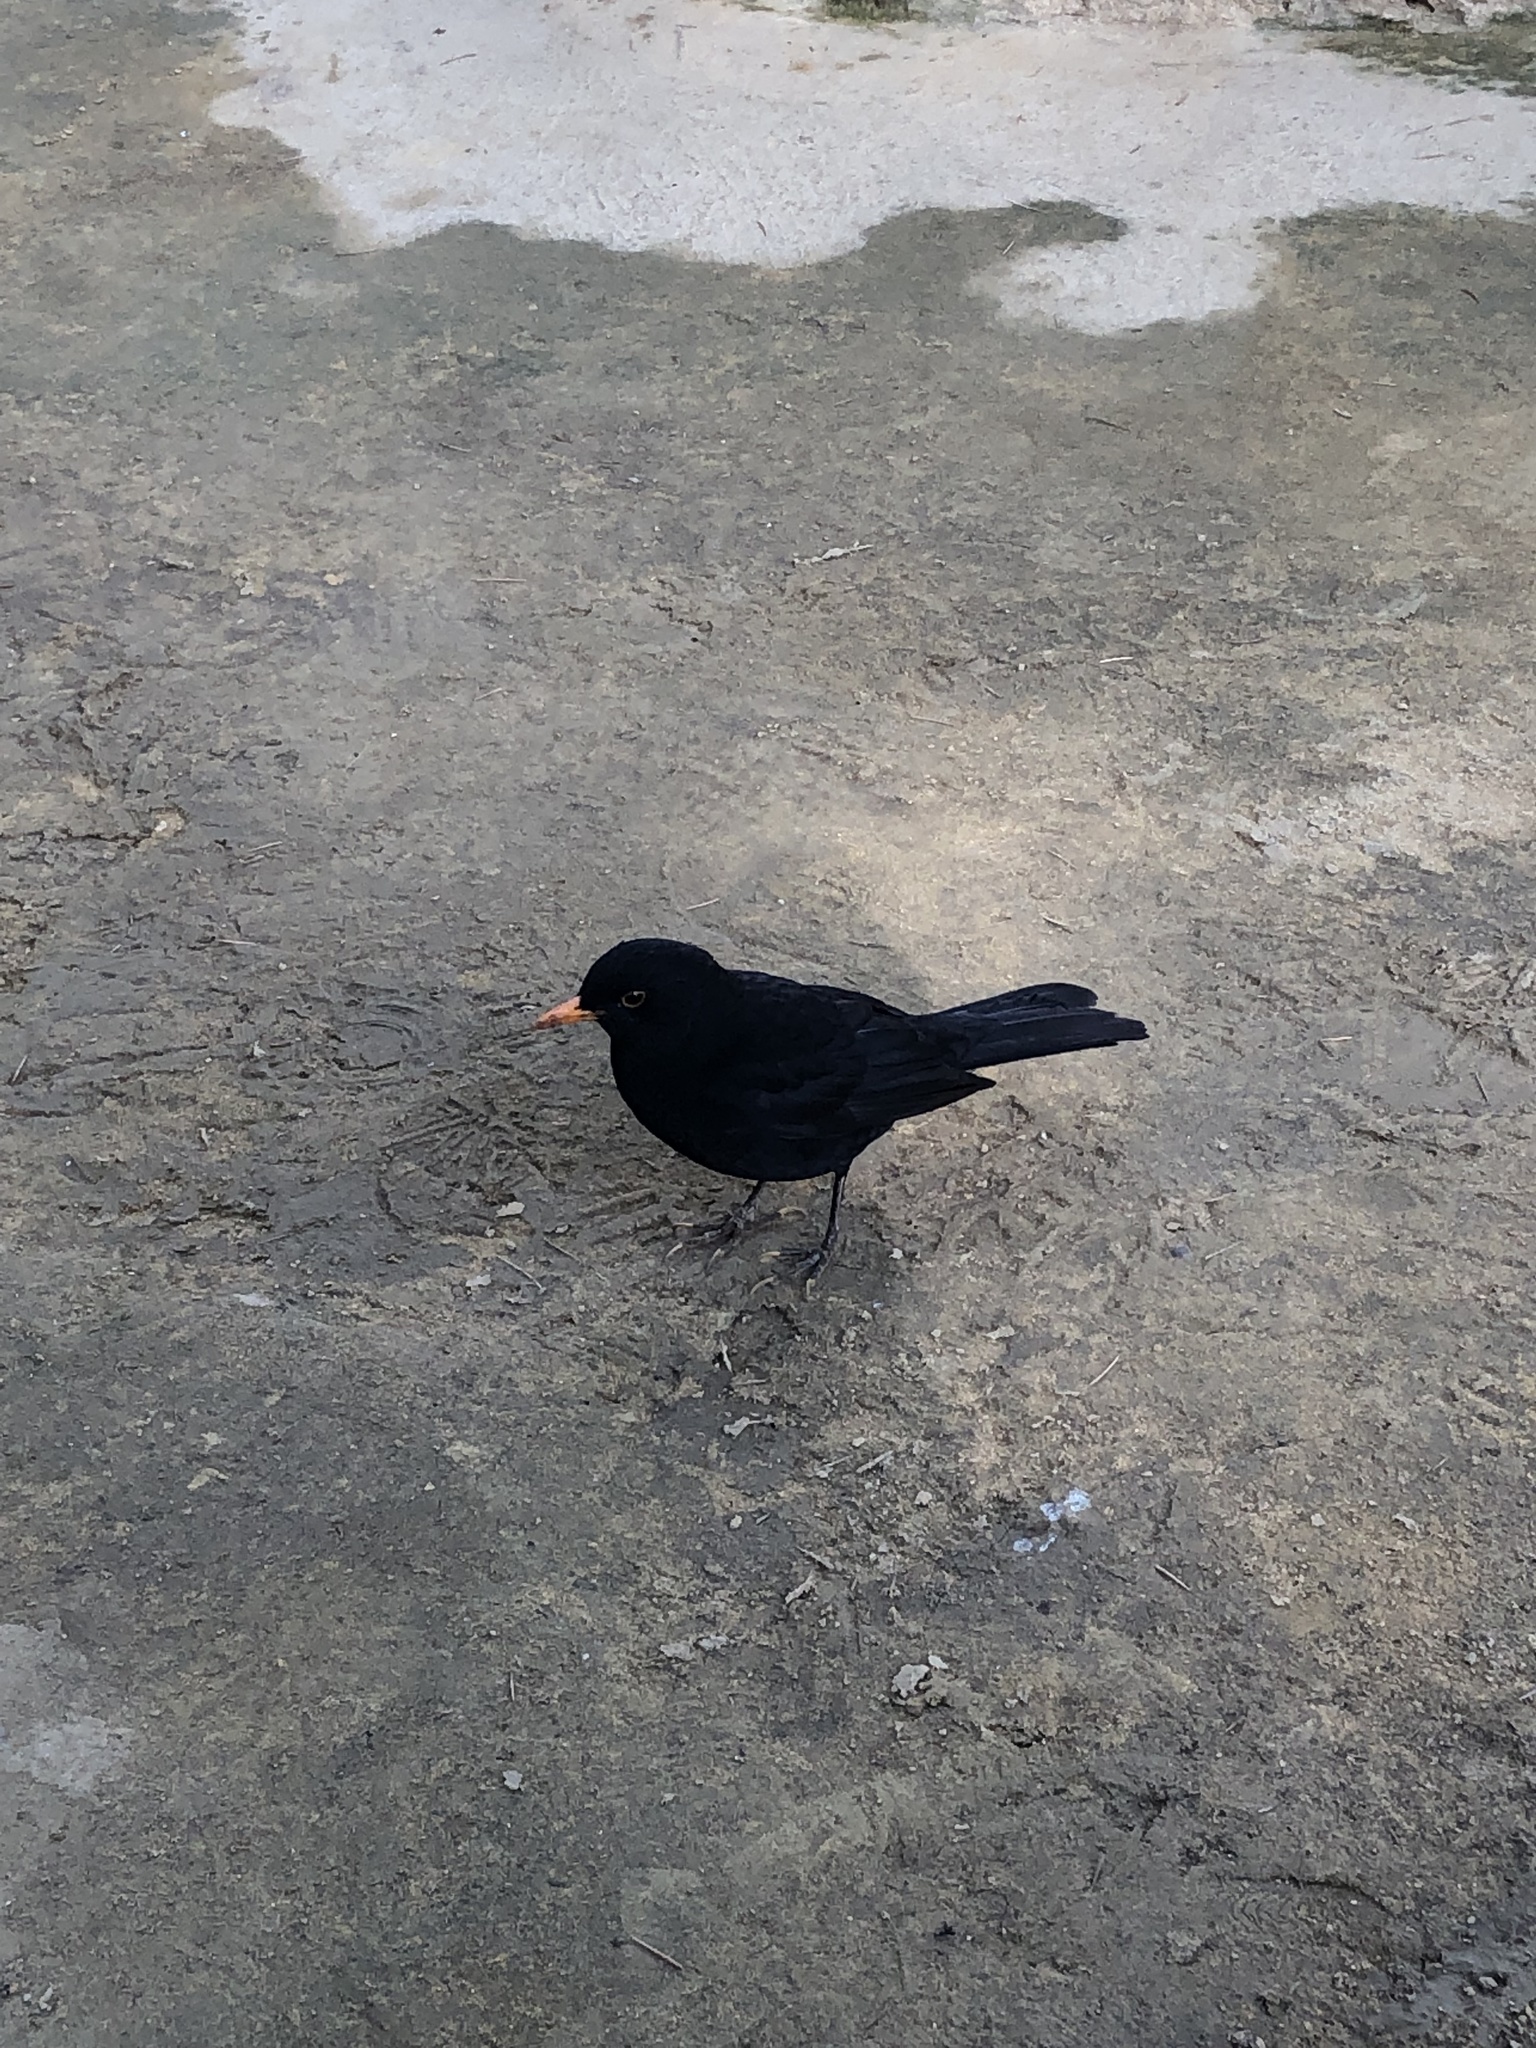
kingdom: Animalia
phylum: Chordata
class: Aves
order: Passeriformes
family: Turdidae
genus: Turdus
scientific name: Turdus merula
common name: Common blackbird
